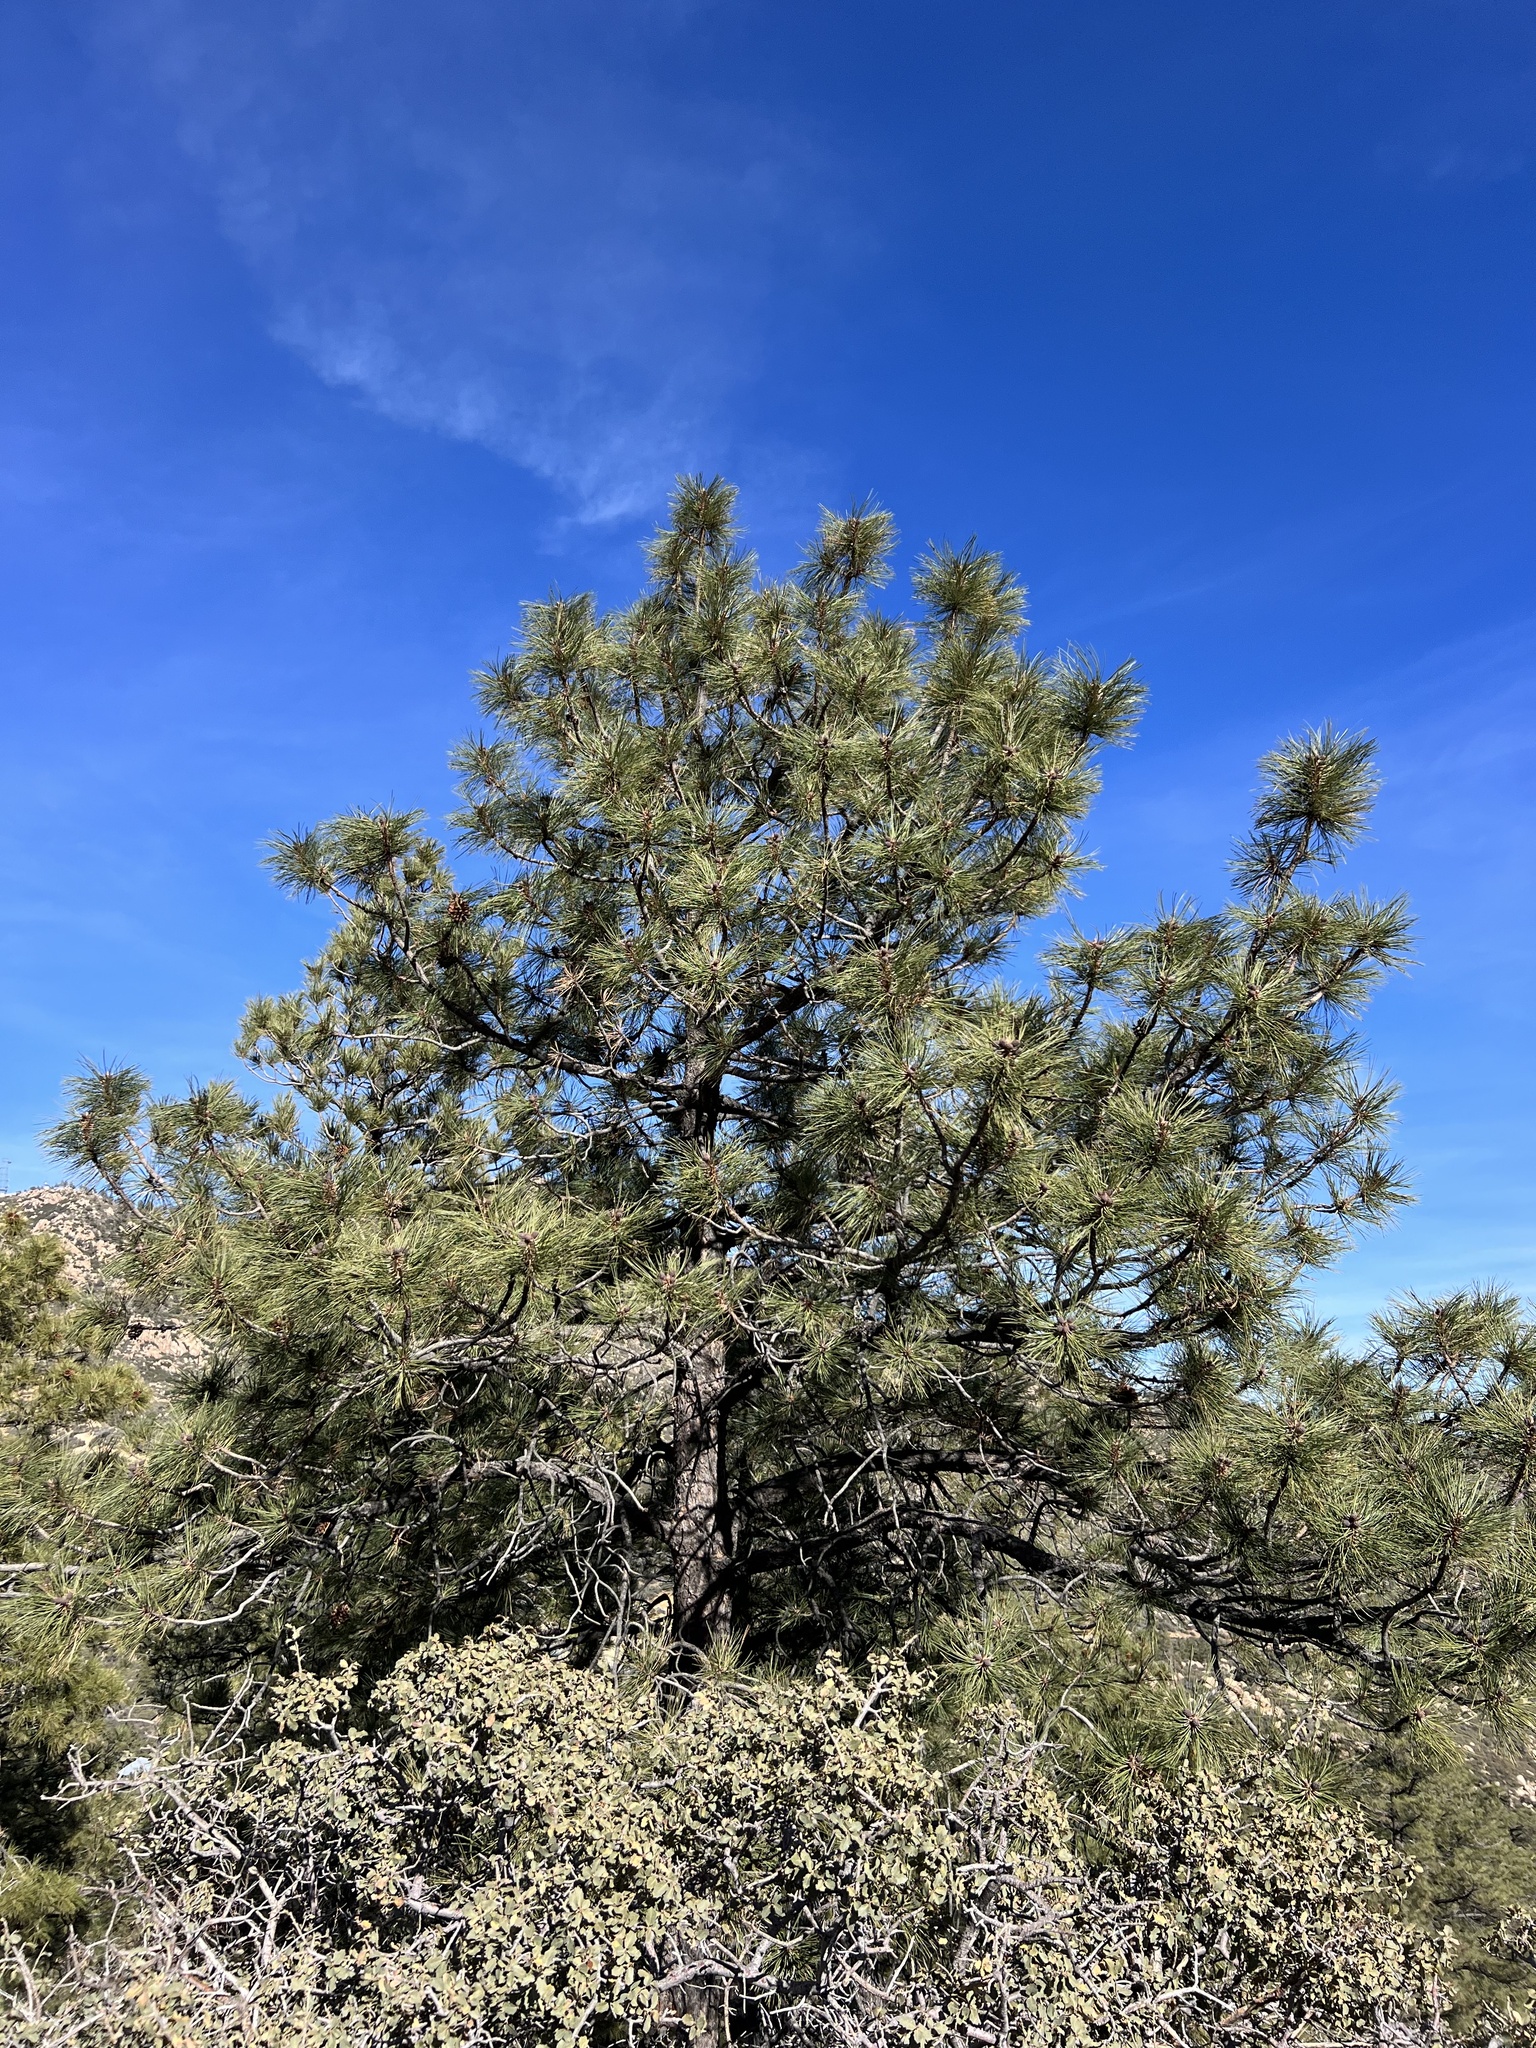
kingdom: Plantae
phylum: Tracheophyta
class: Pinopsida
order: Pinales
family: Pinaceae
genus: Pinus
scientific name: Pinus ponderosa
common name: Western yellow-pine
